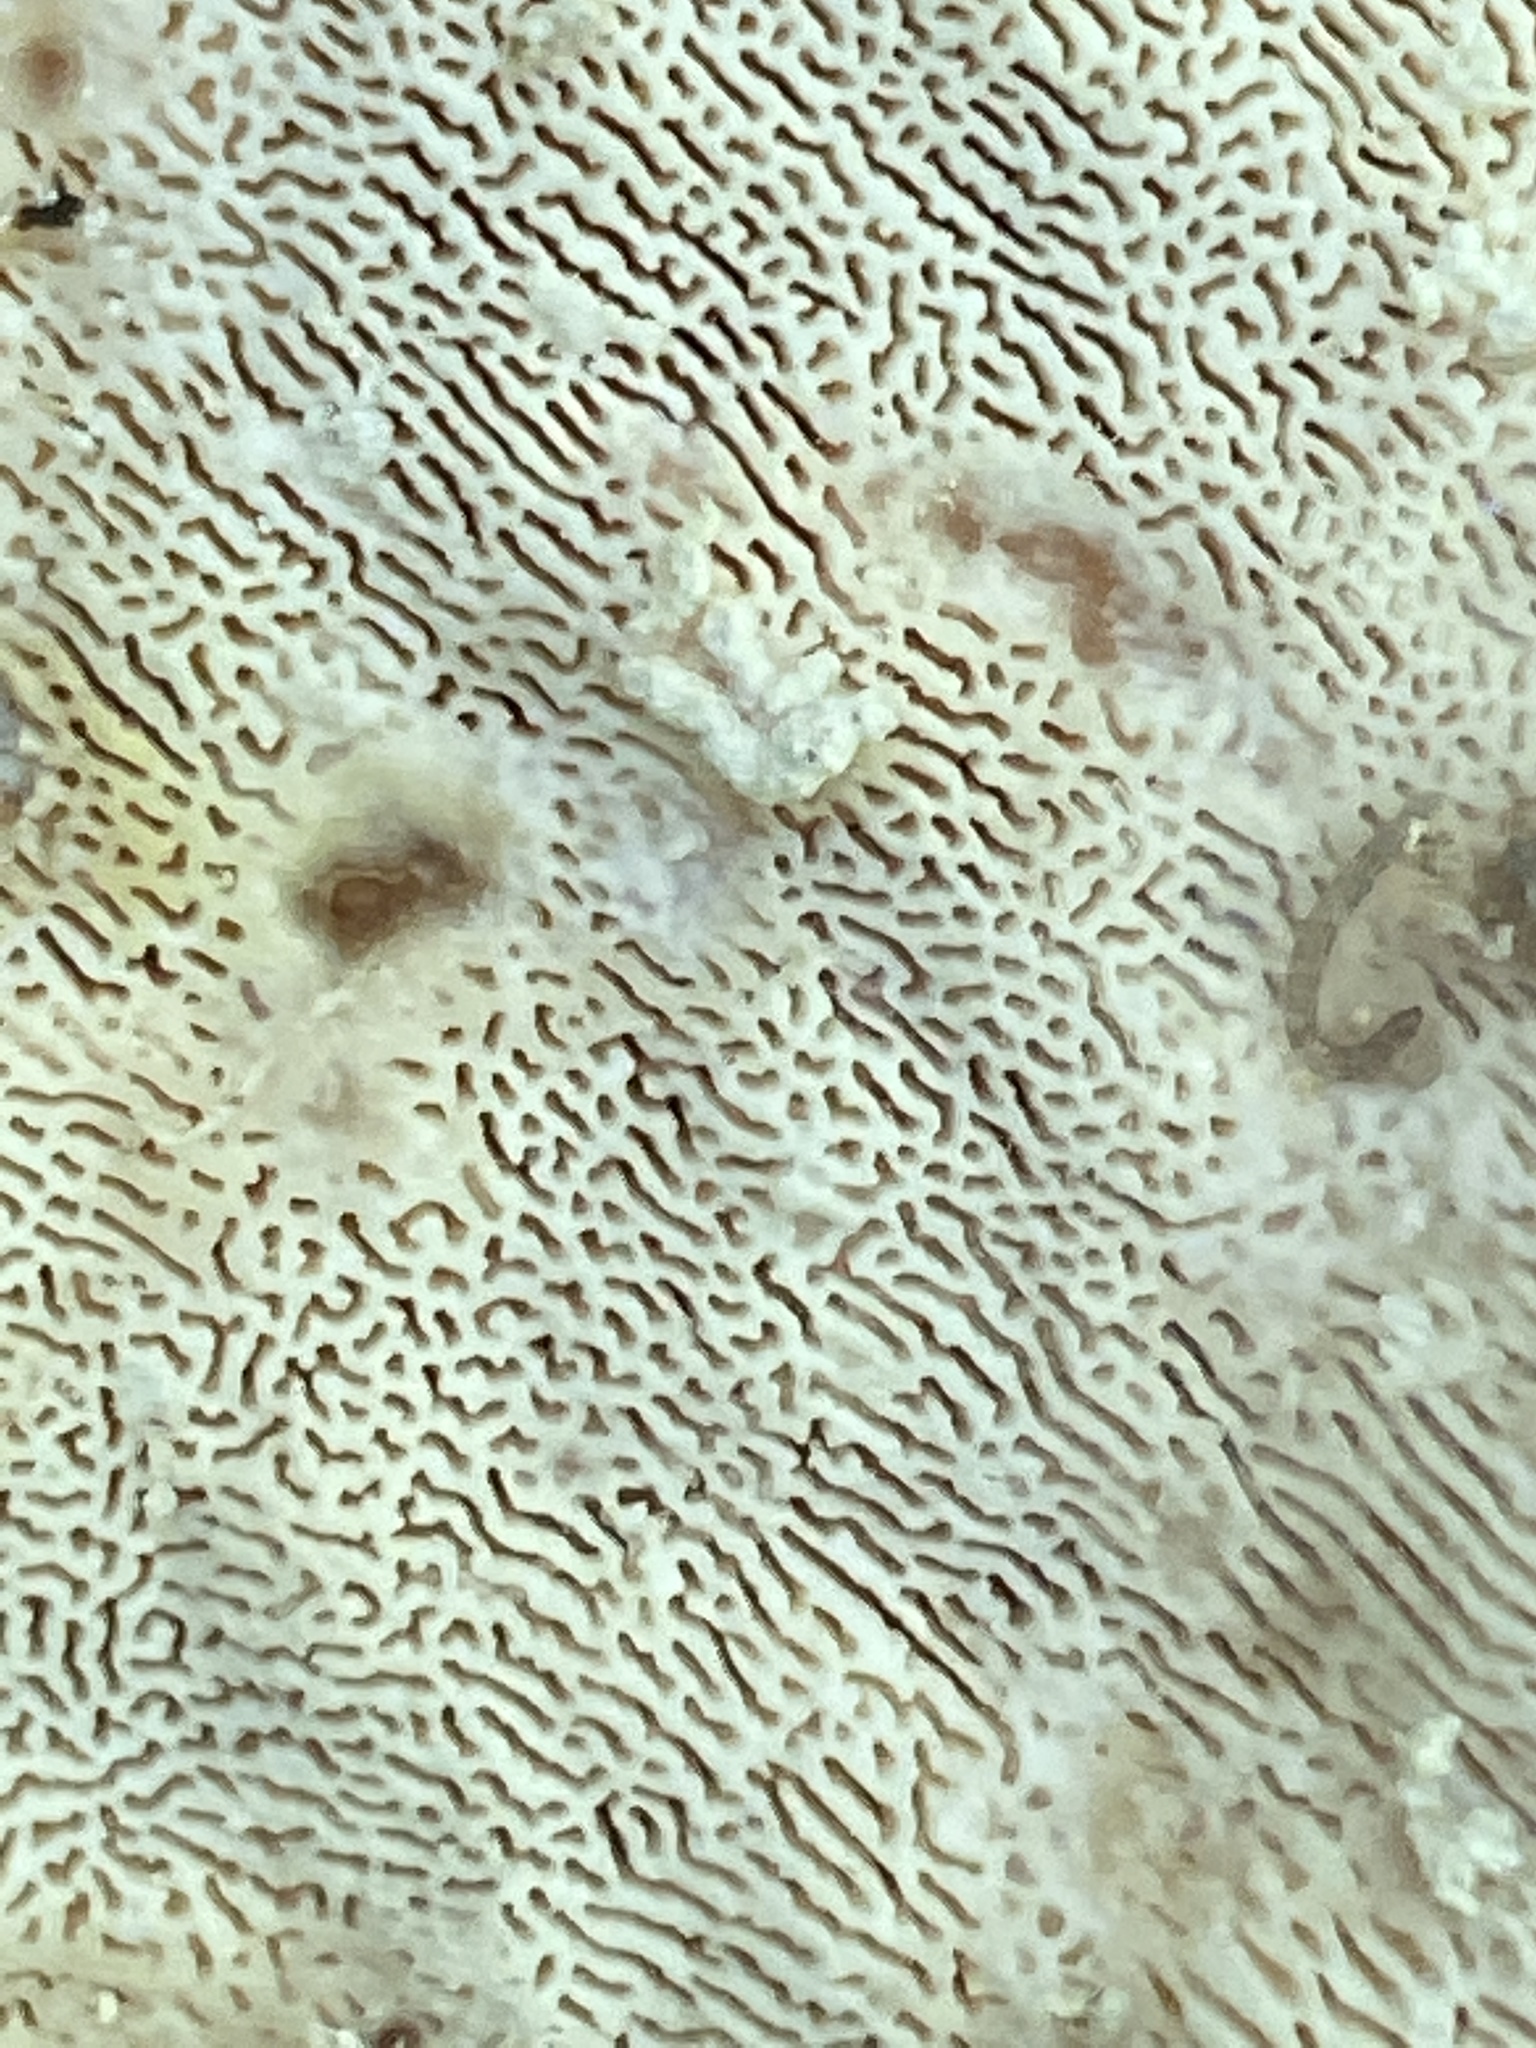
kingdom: Fungi
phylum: Basidiomycota
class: Agaricomycetes
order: Polyporales
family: Polyporaceae
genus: Trametes
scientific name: Trametes gibbosa
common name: Lumpy bracket
